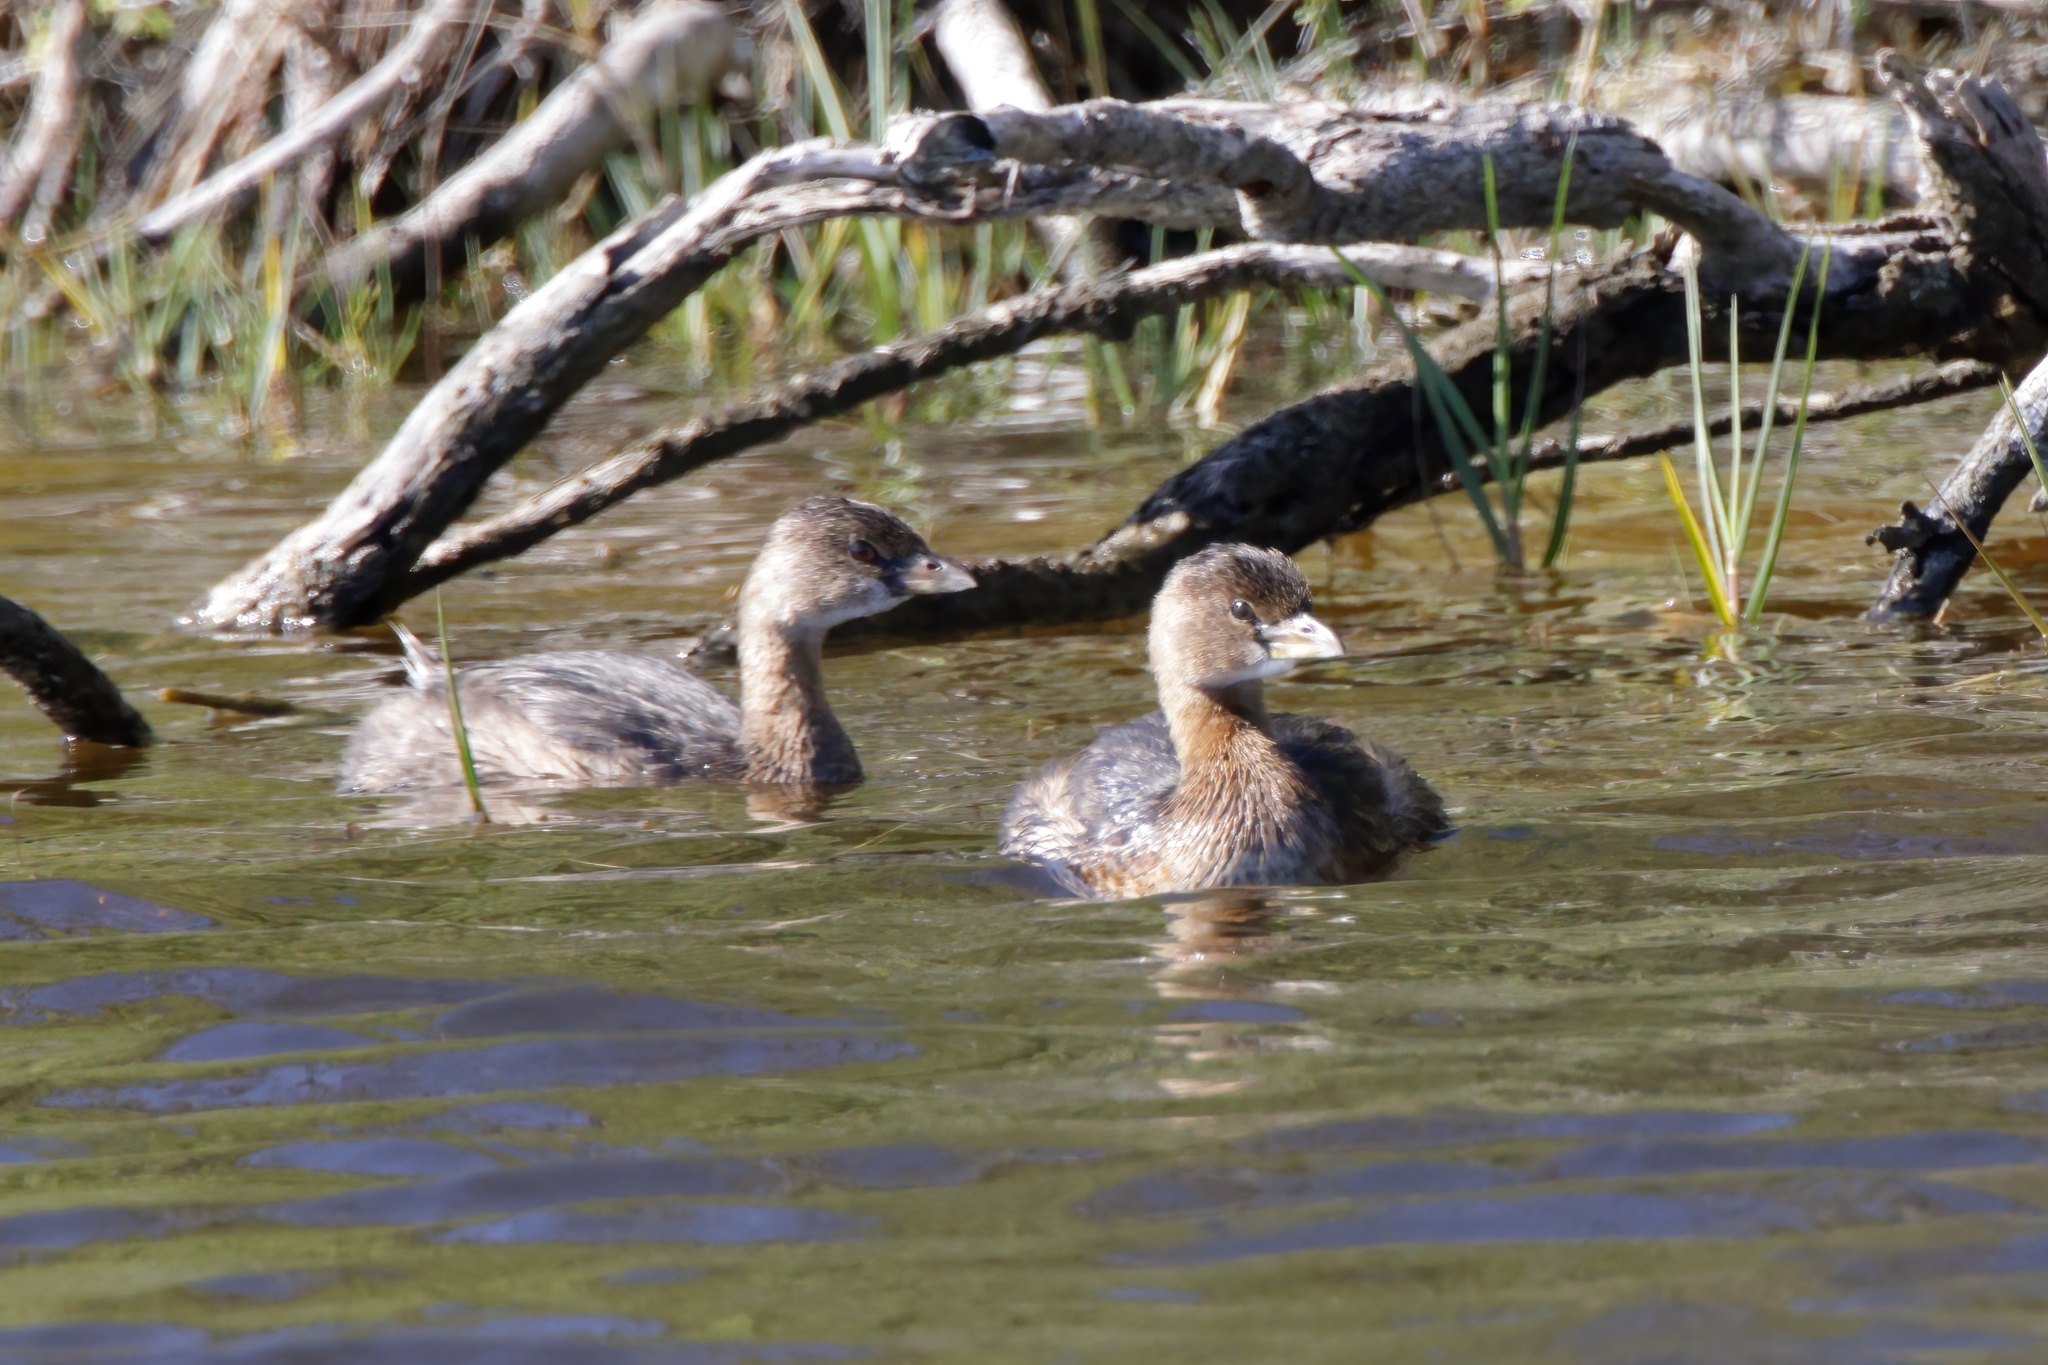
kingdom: Animalia
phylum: Chordata
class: Aves
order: Podicipediformes
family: Podicipedidae
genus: Podilymbus
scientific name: Podilymbus podiceps
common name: Pied-billed grebe
